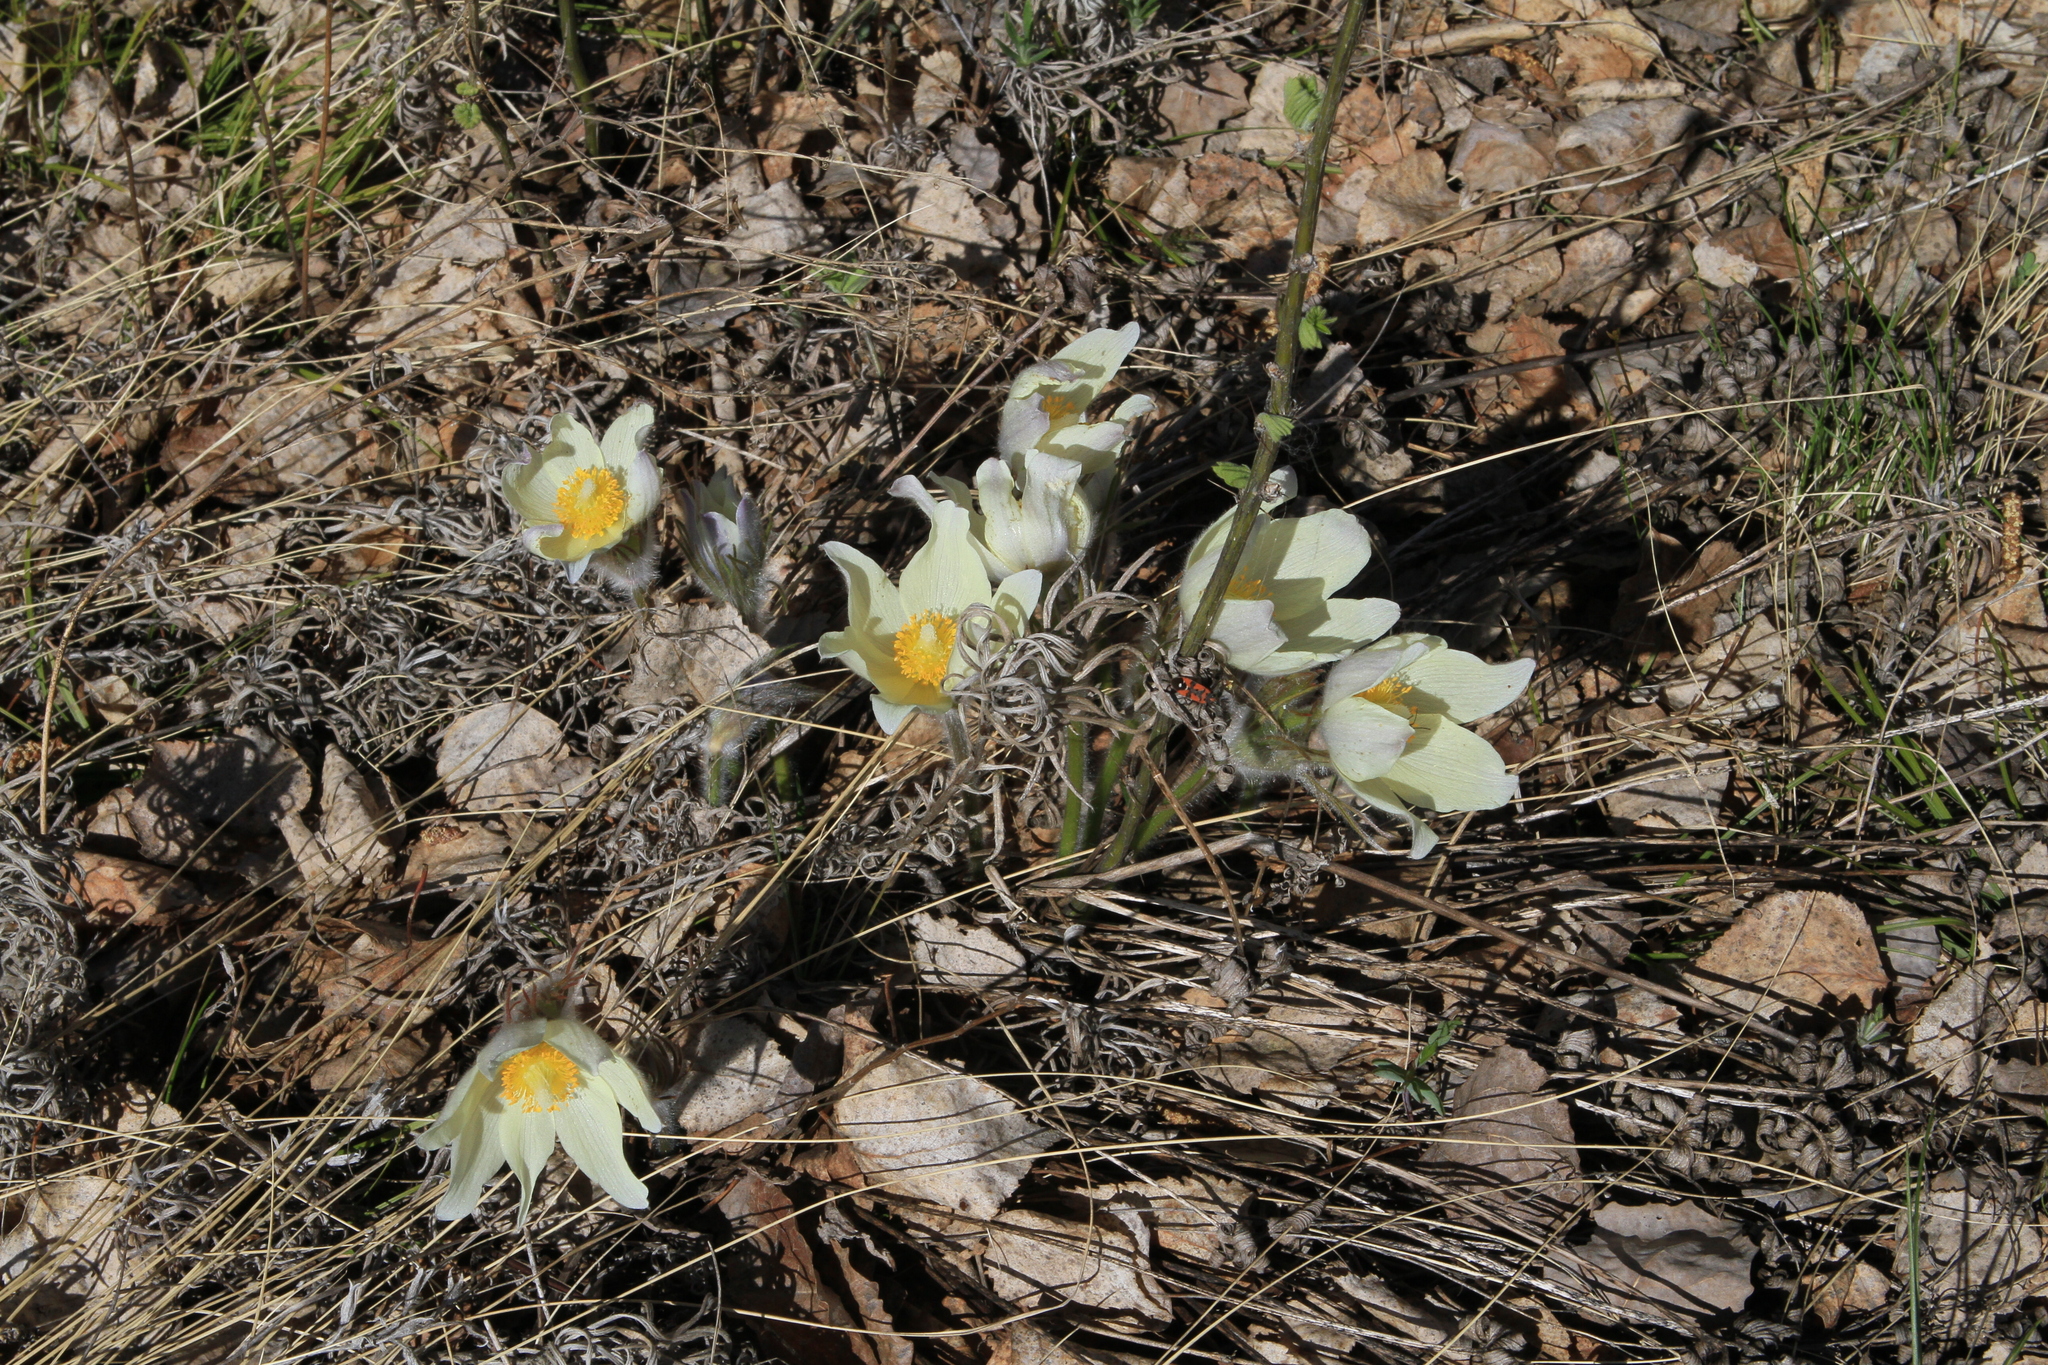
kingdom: Plantae
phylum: Tracheophyta
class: Magnoliopsida
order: Ranunculales
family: Ranunculaceae
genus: Pulsatilla
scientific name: Pulsatilla patens
